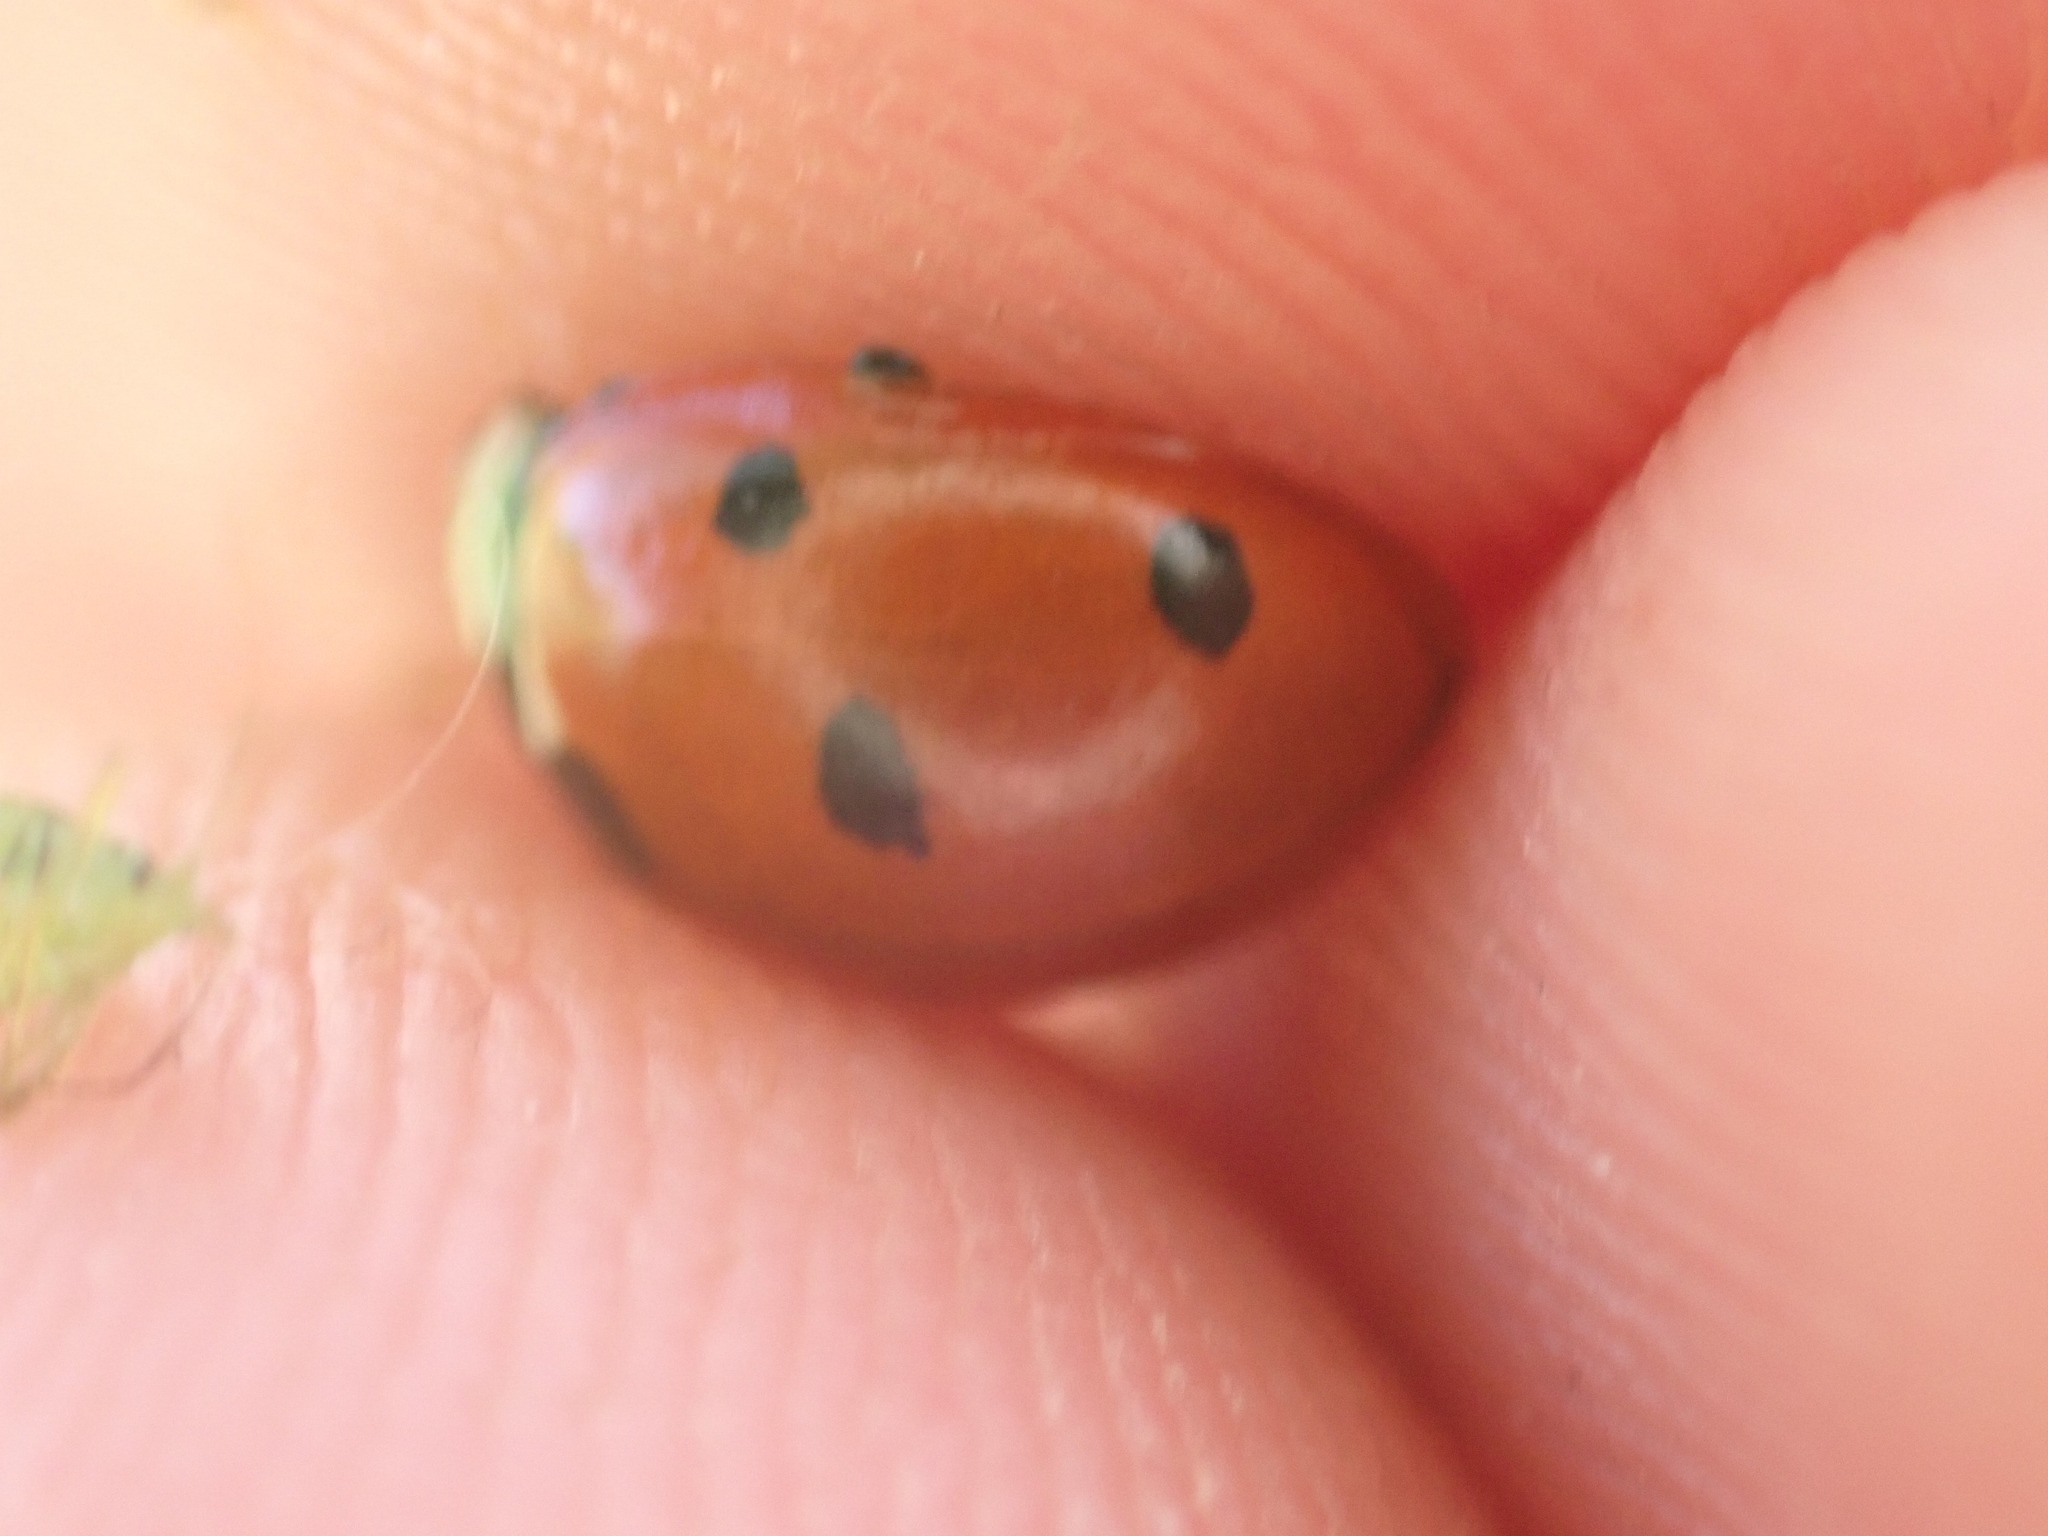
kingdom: Animalia
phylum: Arthropoda
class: Insecta
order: Coleoptera
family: Coccinellidae
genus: Coccinella
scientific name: Coccinella septempunctata
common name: Sevenspotted lady beetle
